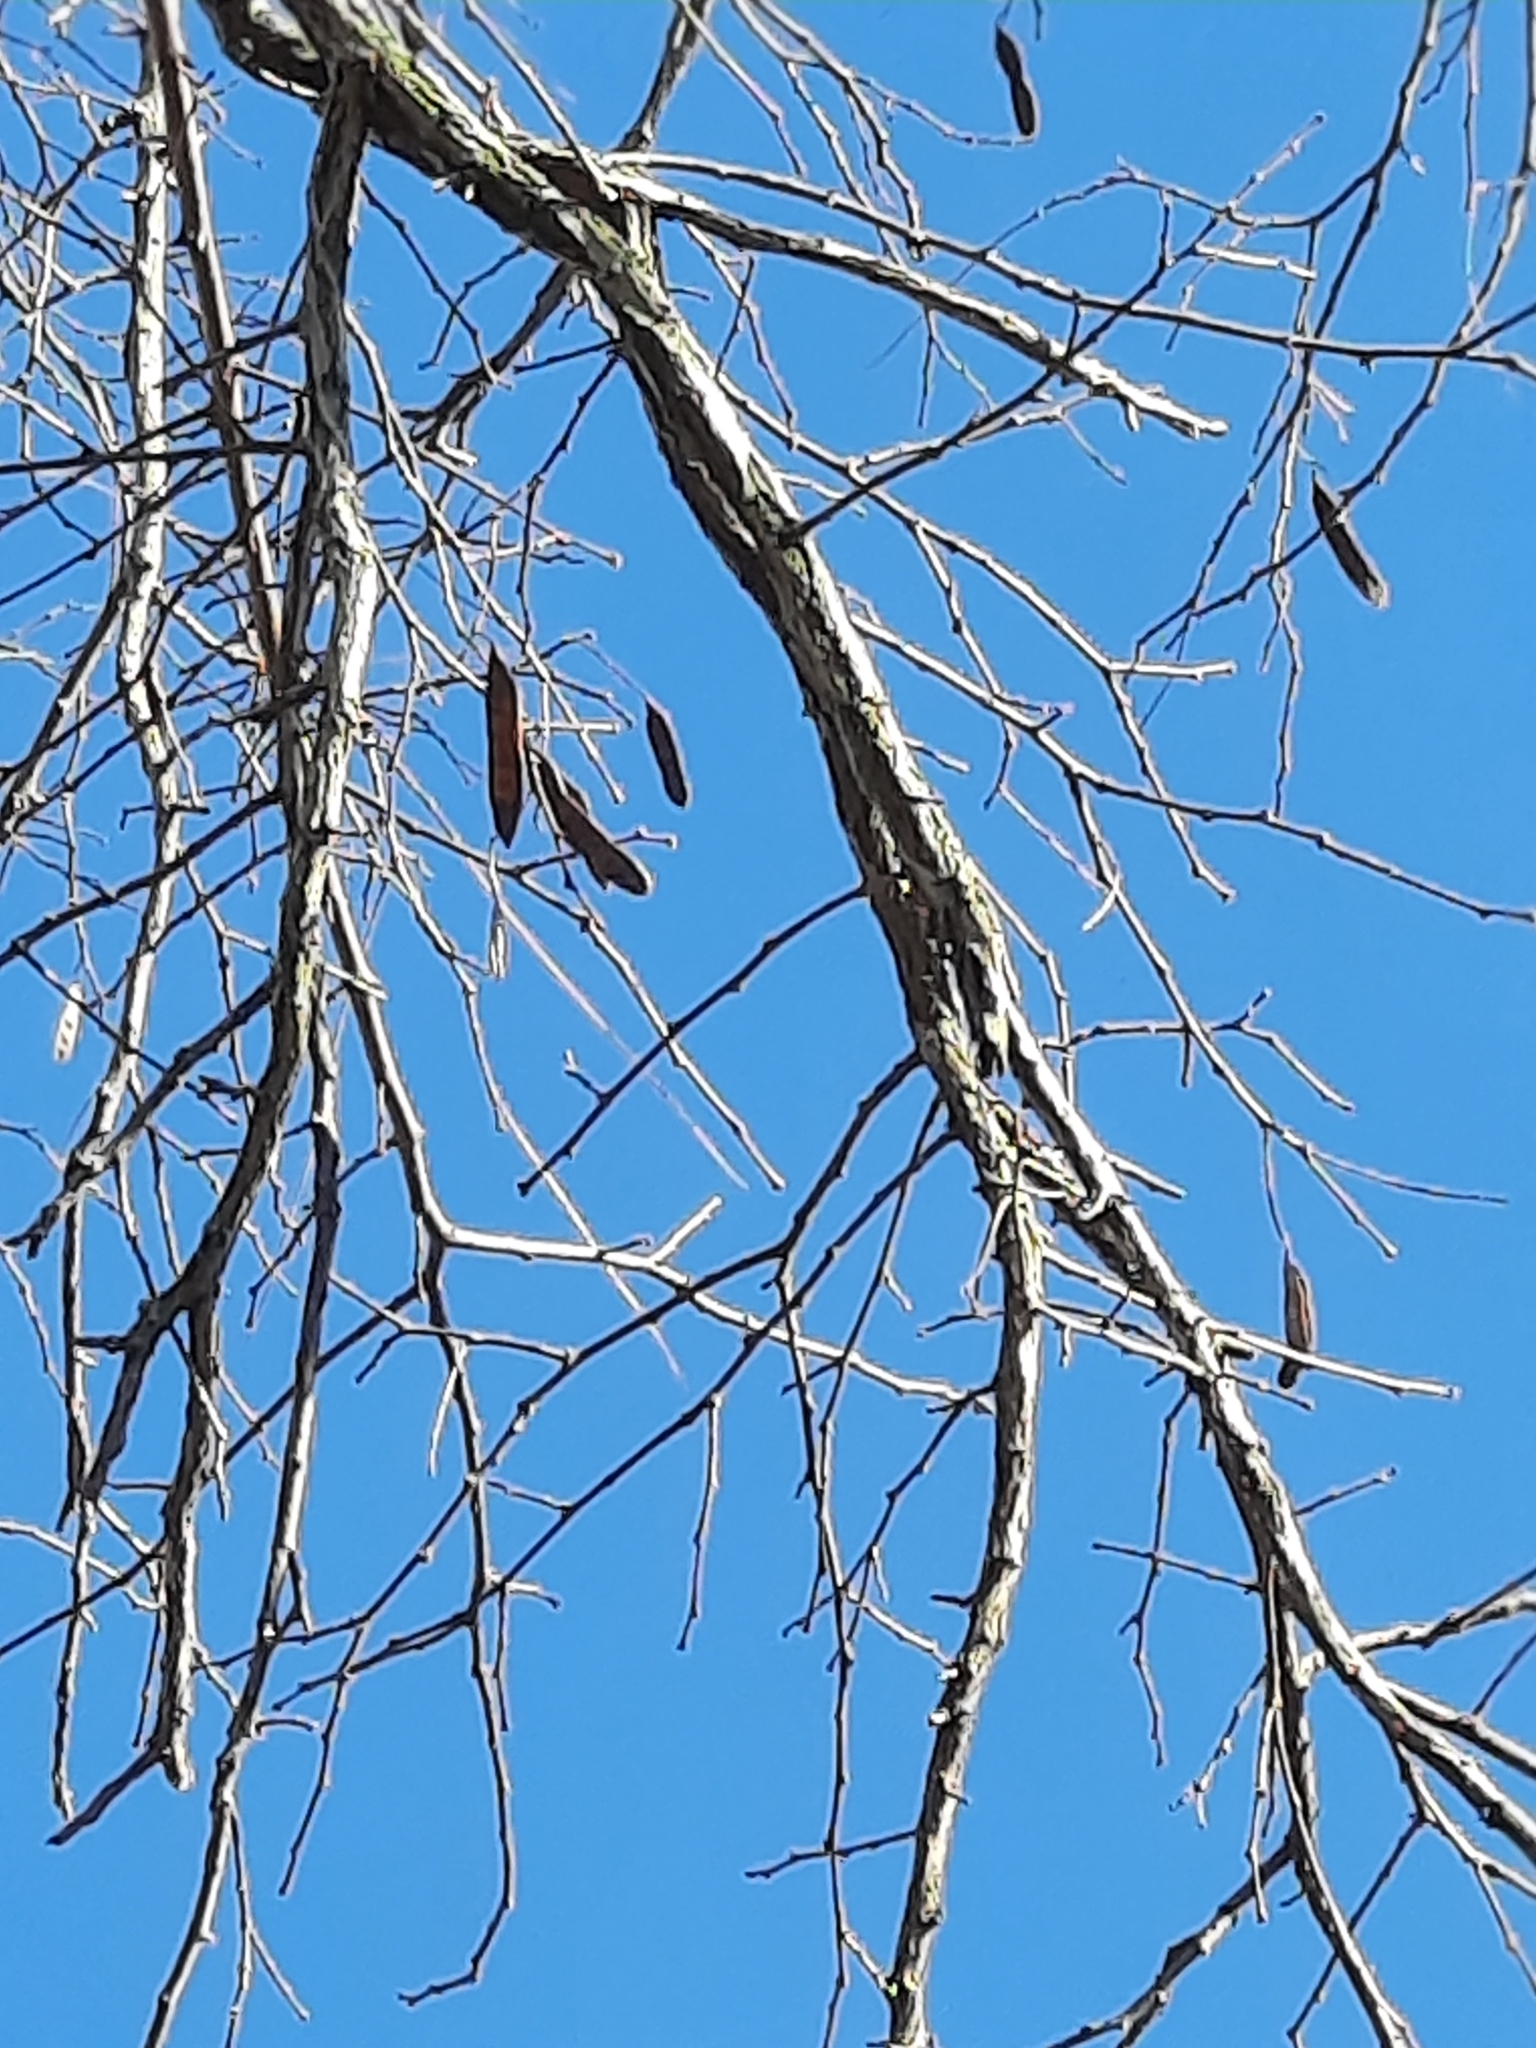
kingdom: Plantae
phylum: Tracheophyta
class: Magnoliopsida
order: Fabales
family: Fabaceae
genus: Robinia
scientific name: Robinia pseudoacacia
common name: Black locust
